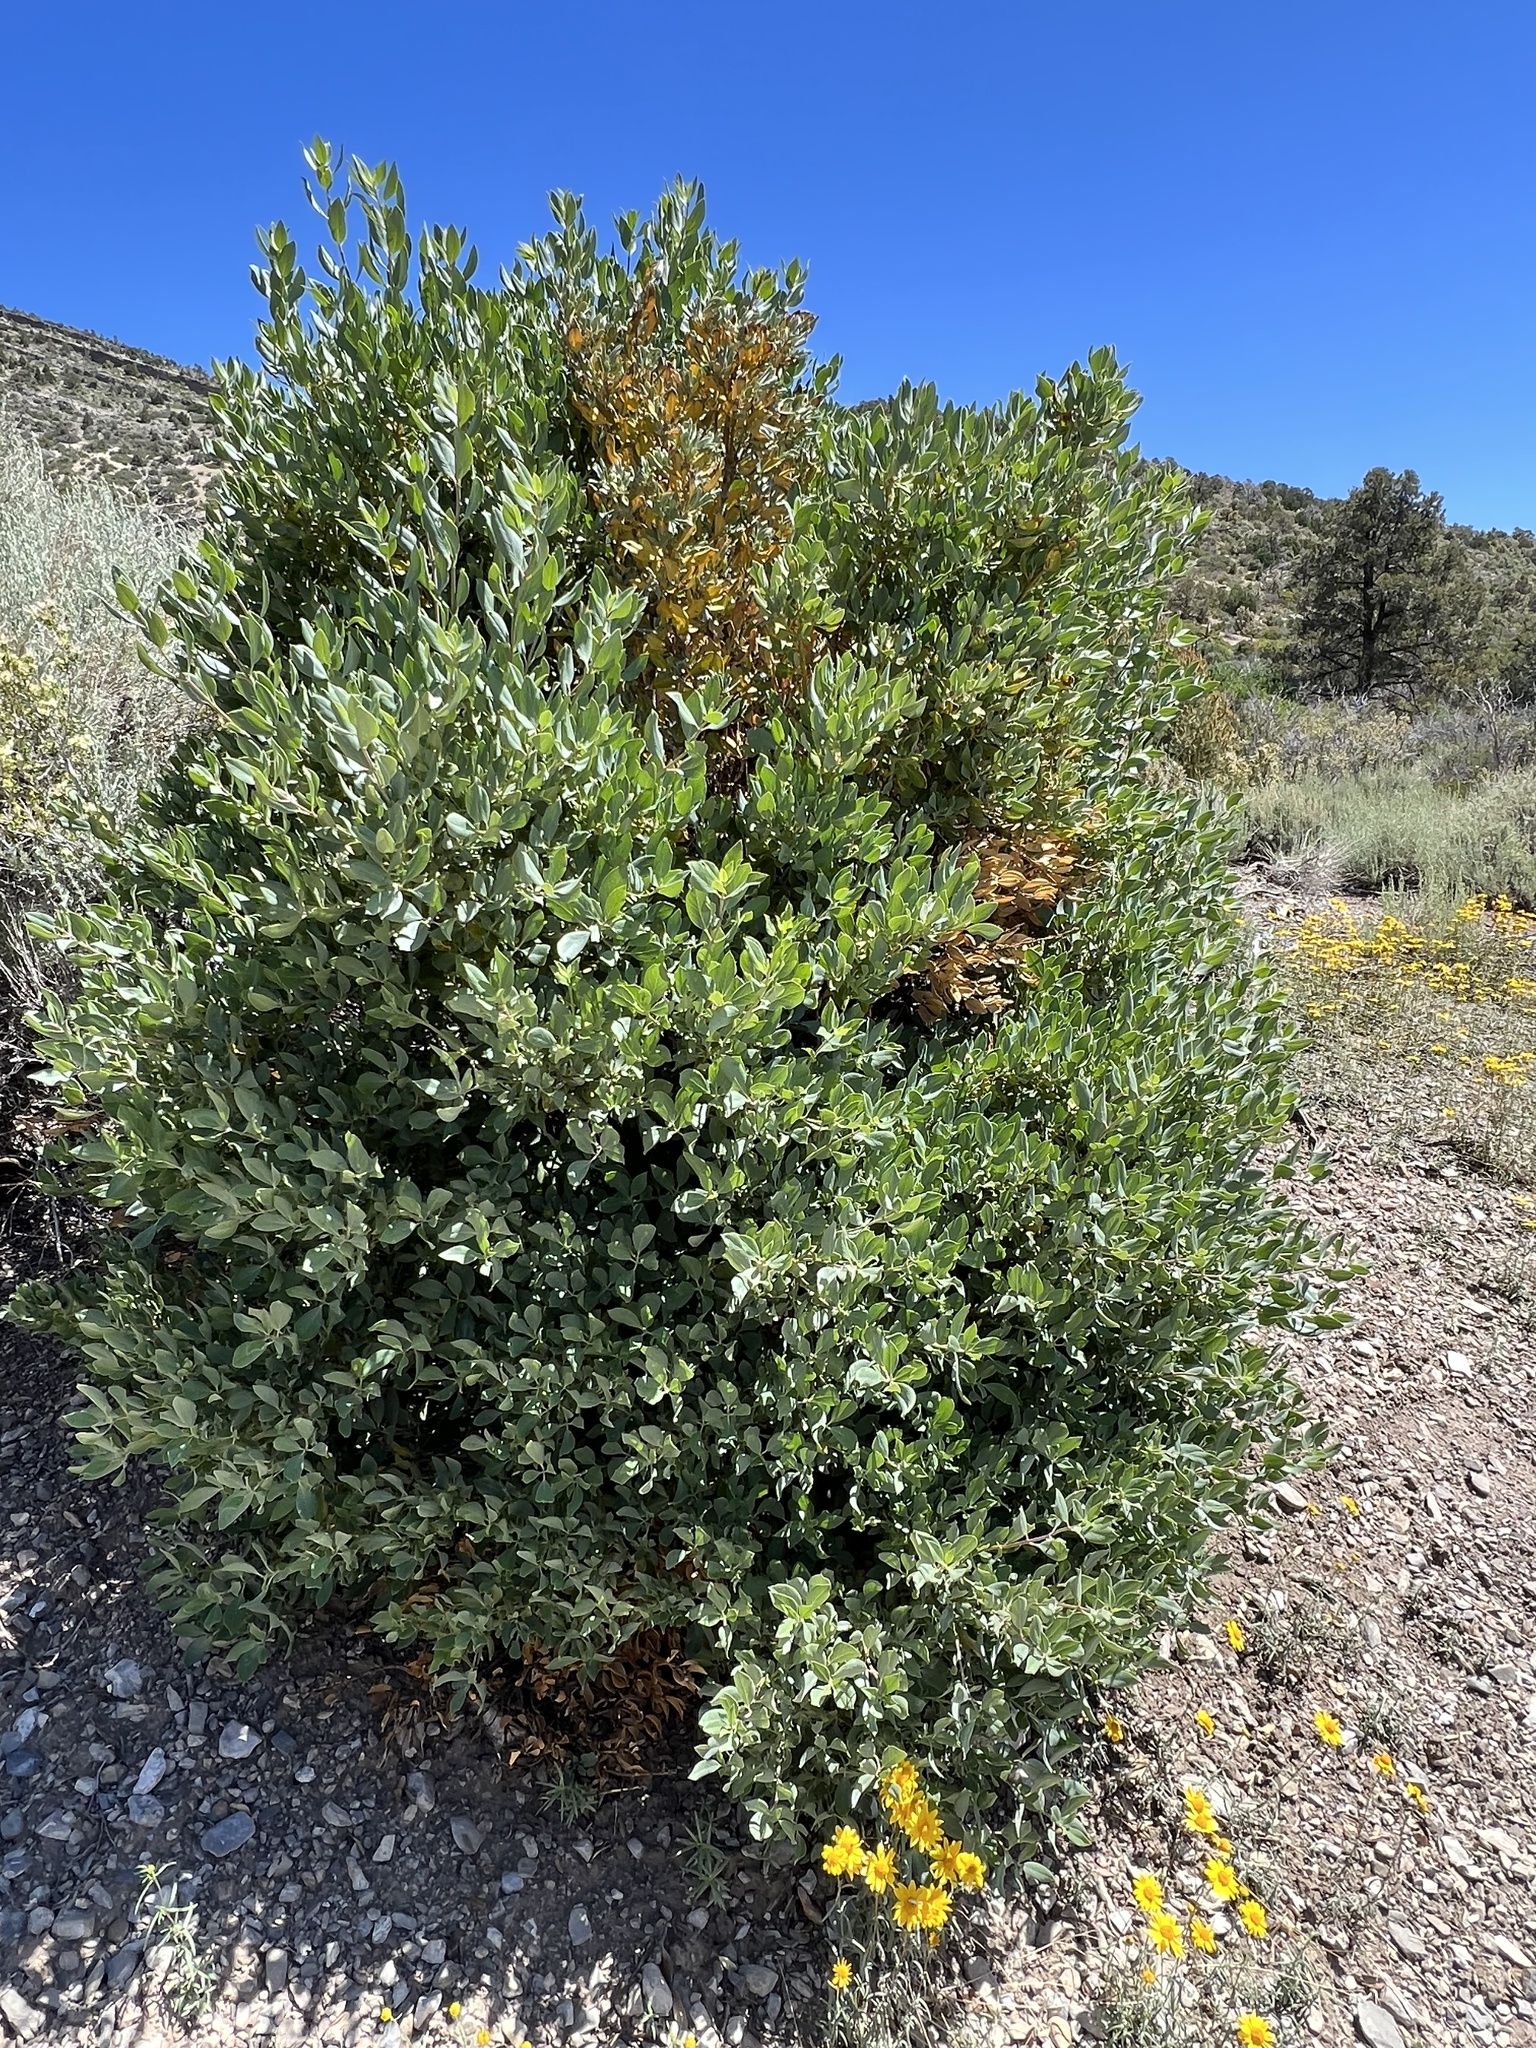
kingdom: Plantae
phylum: Tracheophyta
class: Magnoliopsida
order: Garryales
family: Garryaceae
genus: Garrya
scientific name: Garrya flavescens
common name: Ashy silk-tassel
